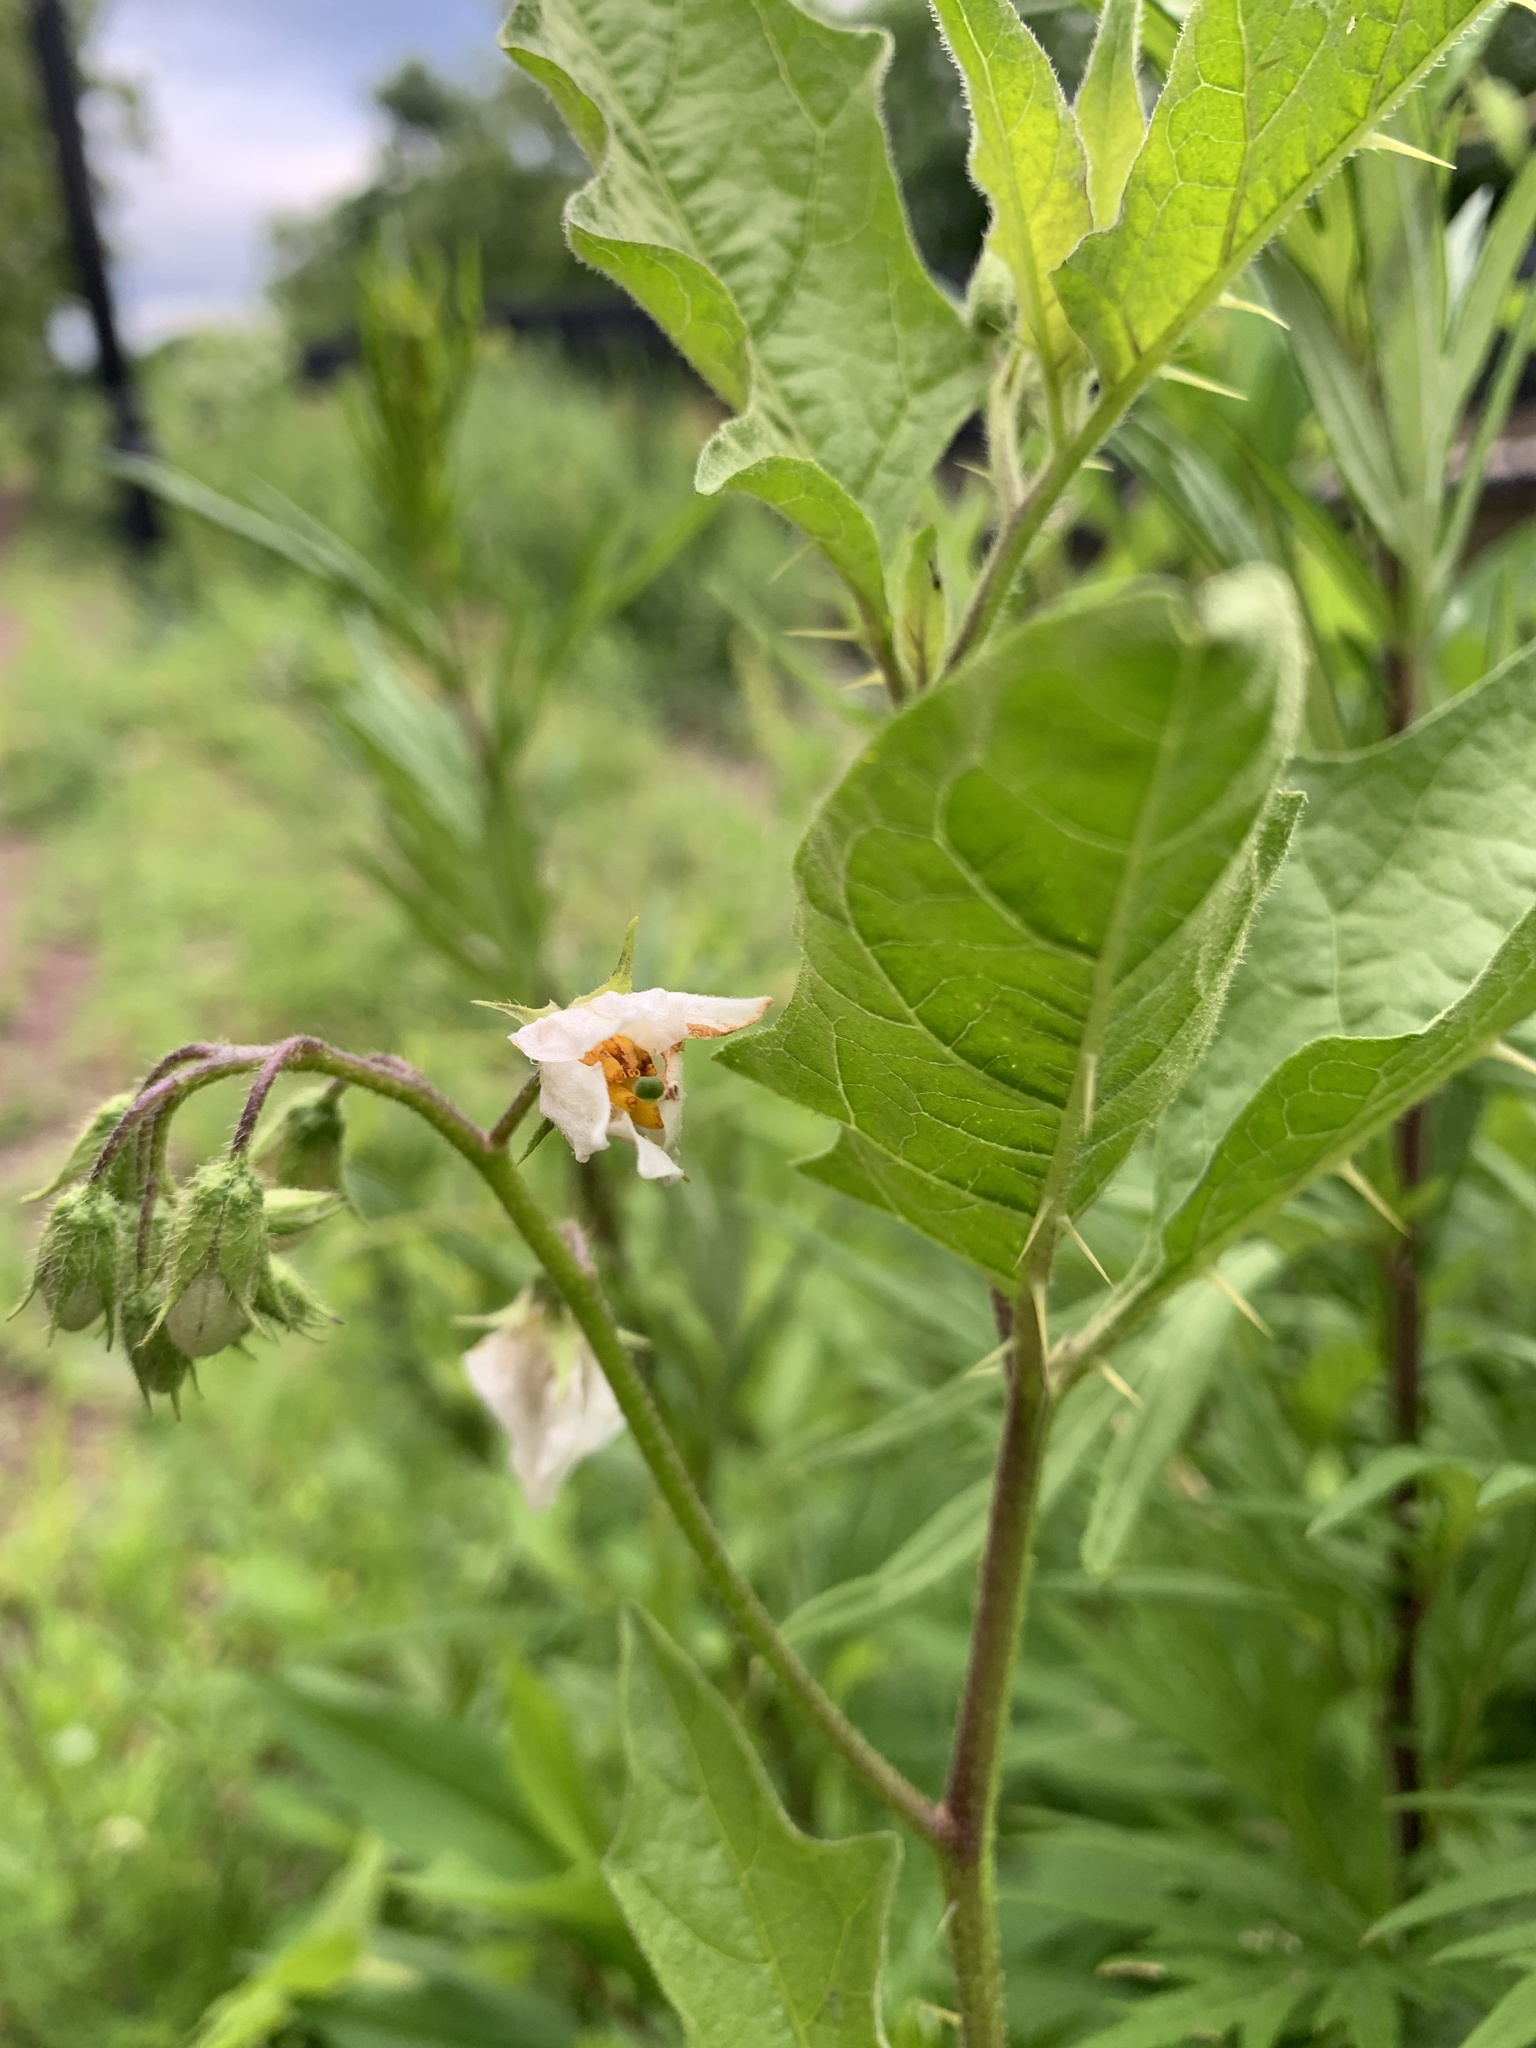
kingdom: Plantae
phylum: Tracheophyta
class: Magnoliopsida
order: Solanales
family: Solanaceae
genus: Solanum
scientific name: Solanum carolinense
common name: Horse-nettle
